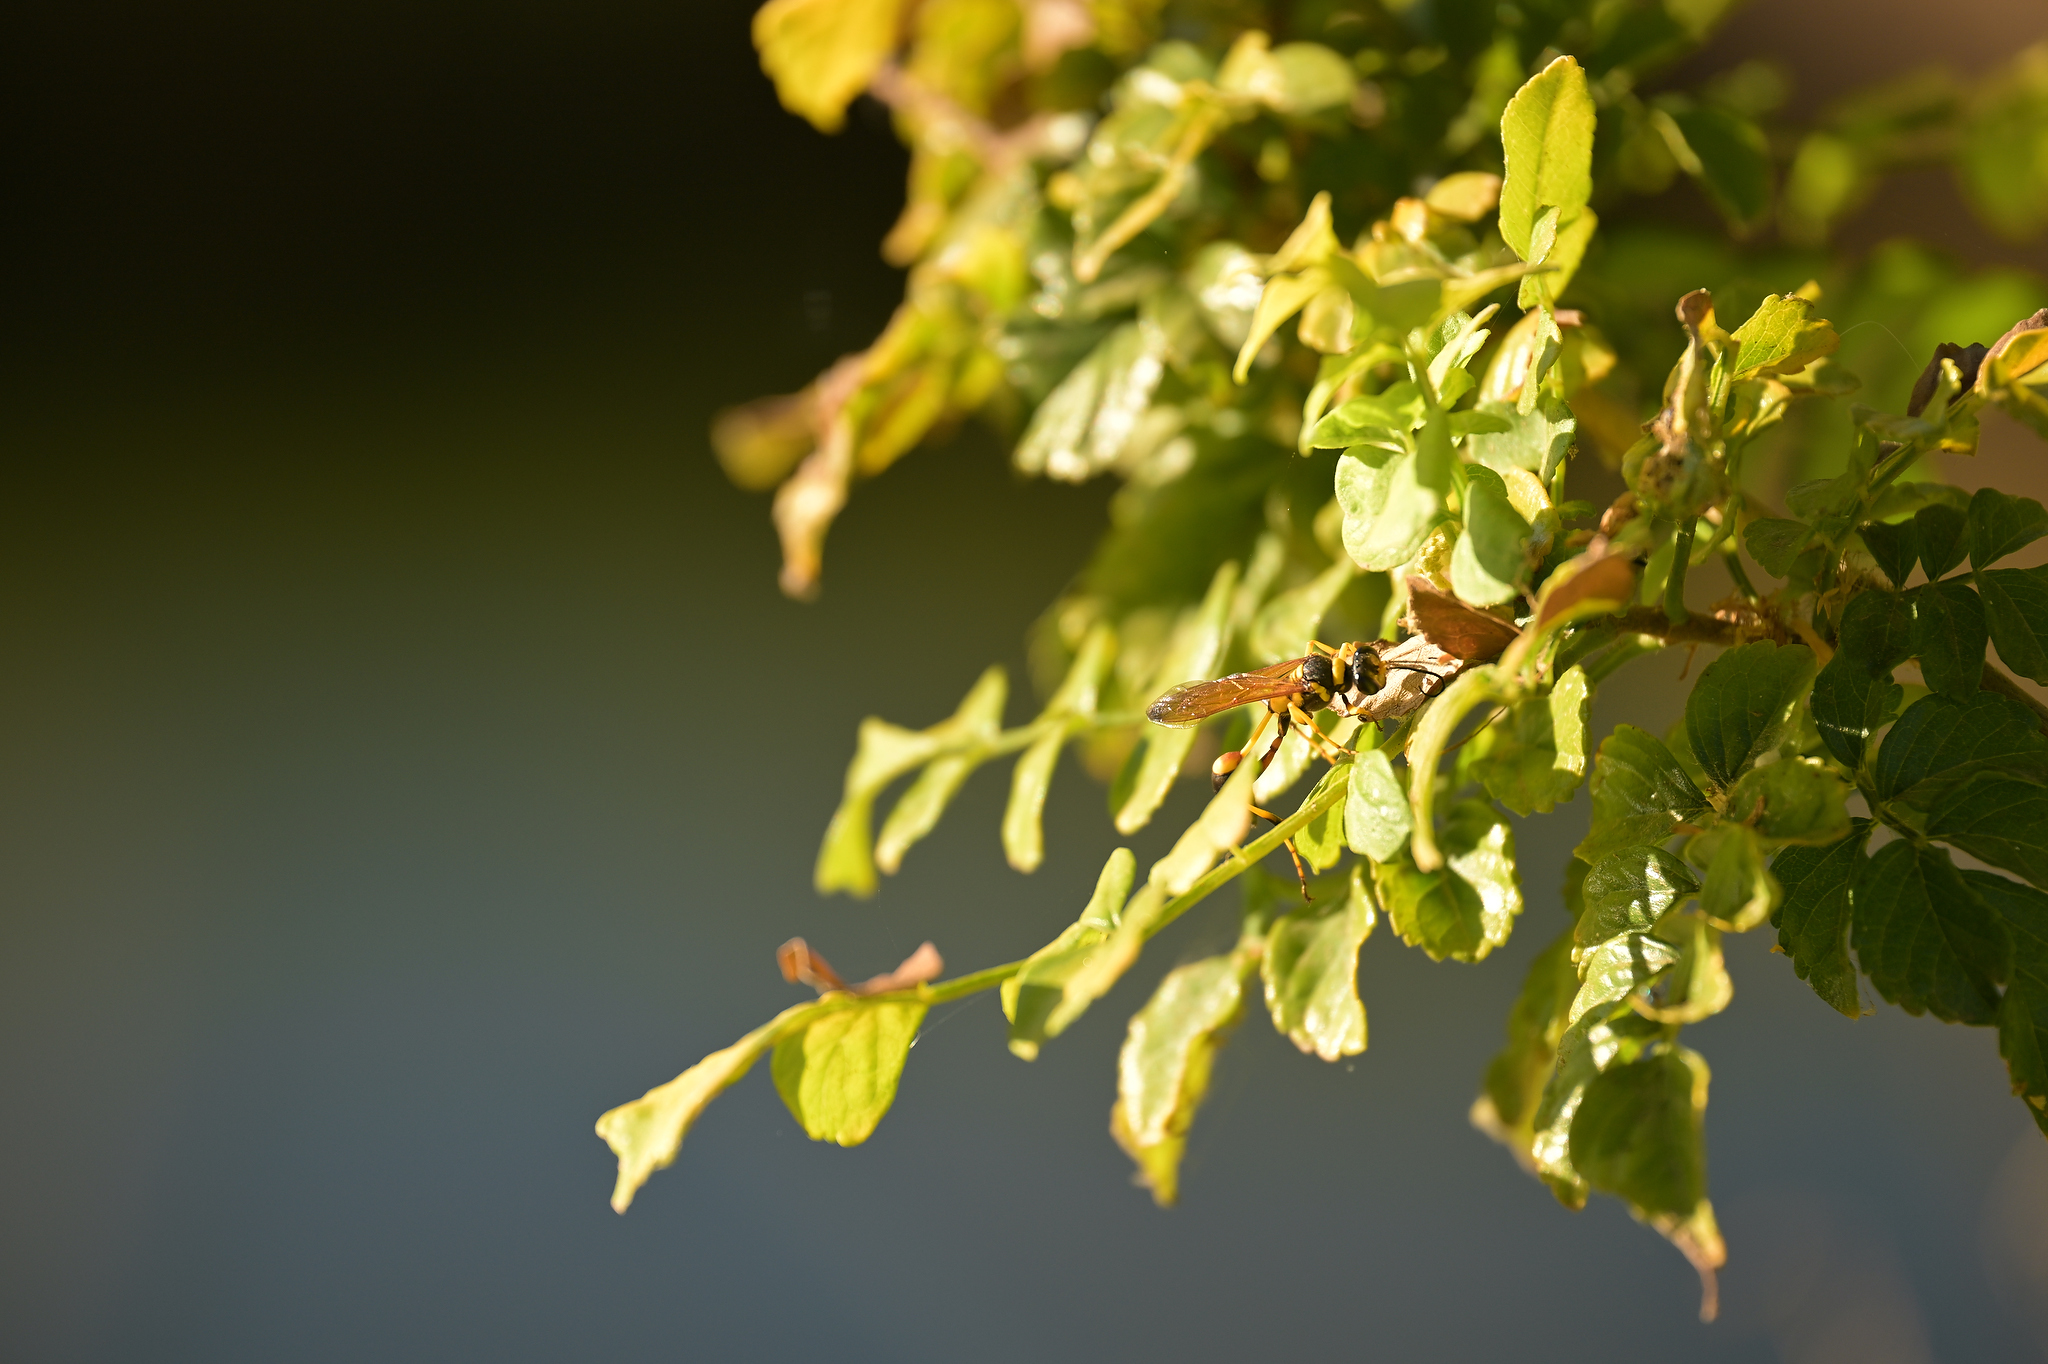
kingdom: Animalia
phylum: Arthropoda
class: Insecta
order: Hymenoptera
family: Sphecidae
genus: Sceliphron
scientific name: Sceliphron caementarium
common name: Mud dauber
